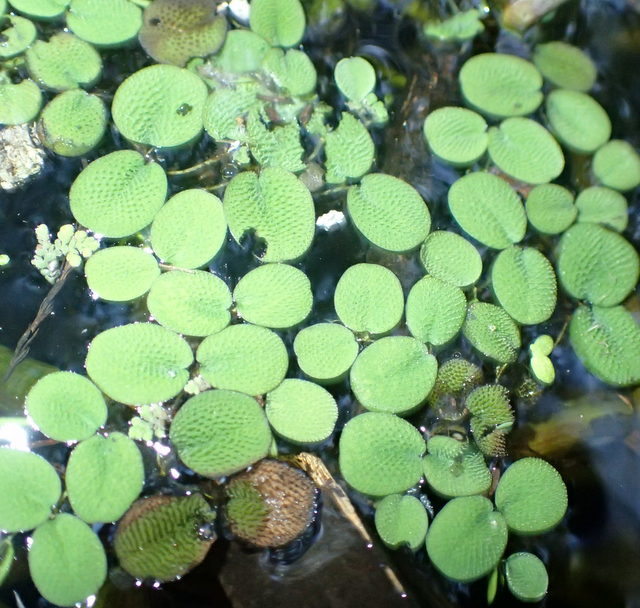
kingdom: Plantae
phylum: Tracheophyta
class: Polypodiopsida
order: Salviniales
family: Salviniaceae
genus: Salvinia
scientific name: Salvinia minima
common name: Water spangles
